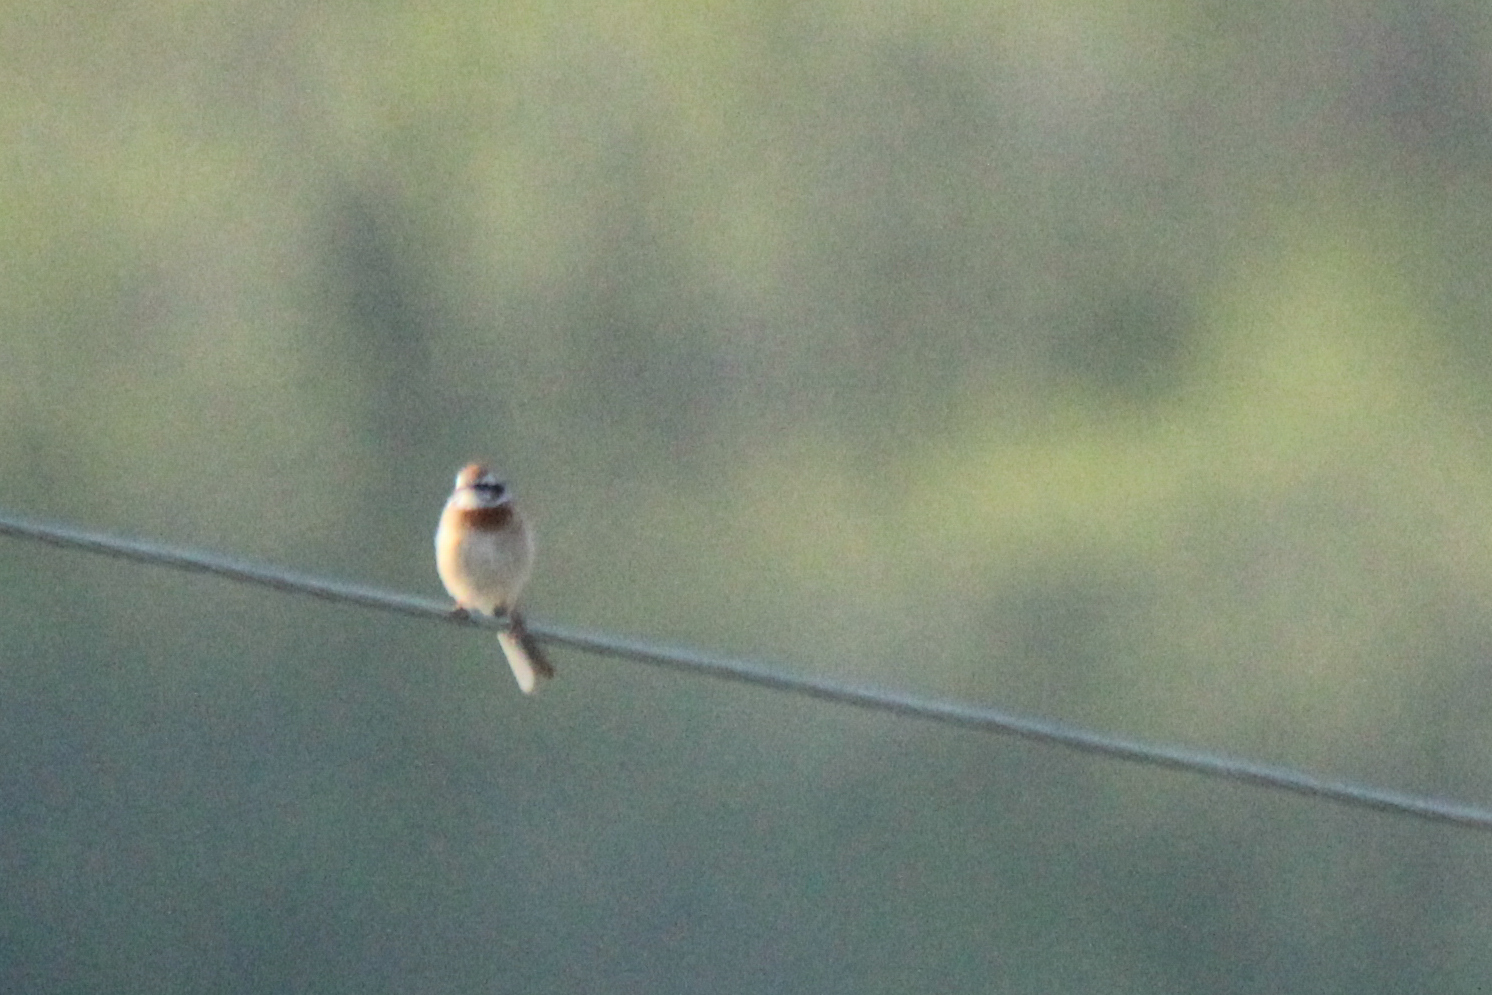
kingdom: Animalia
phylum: Chordata
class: Aves
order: Passeriformes
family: Emberizidae
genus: Emberiza
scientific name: Emberiza cioides
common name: Meadow bunting
